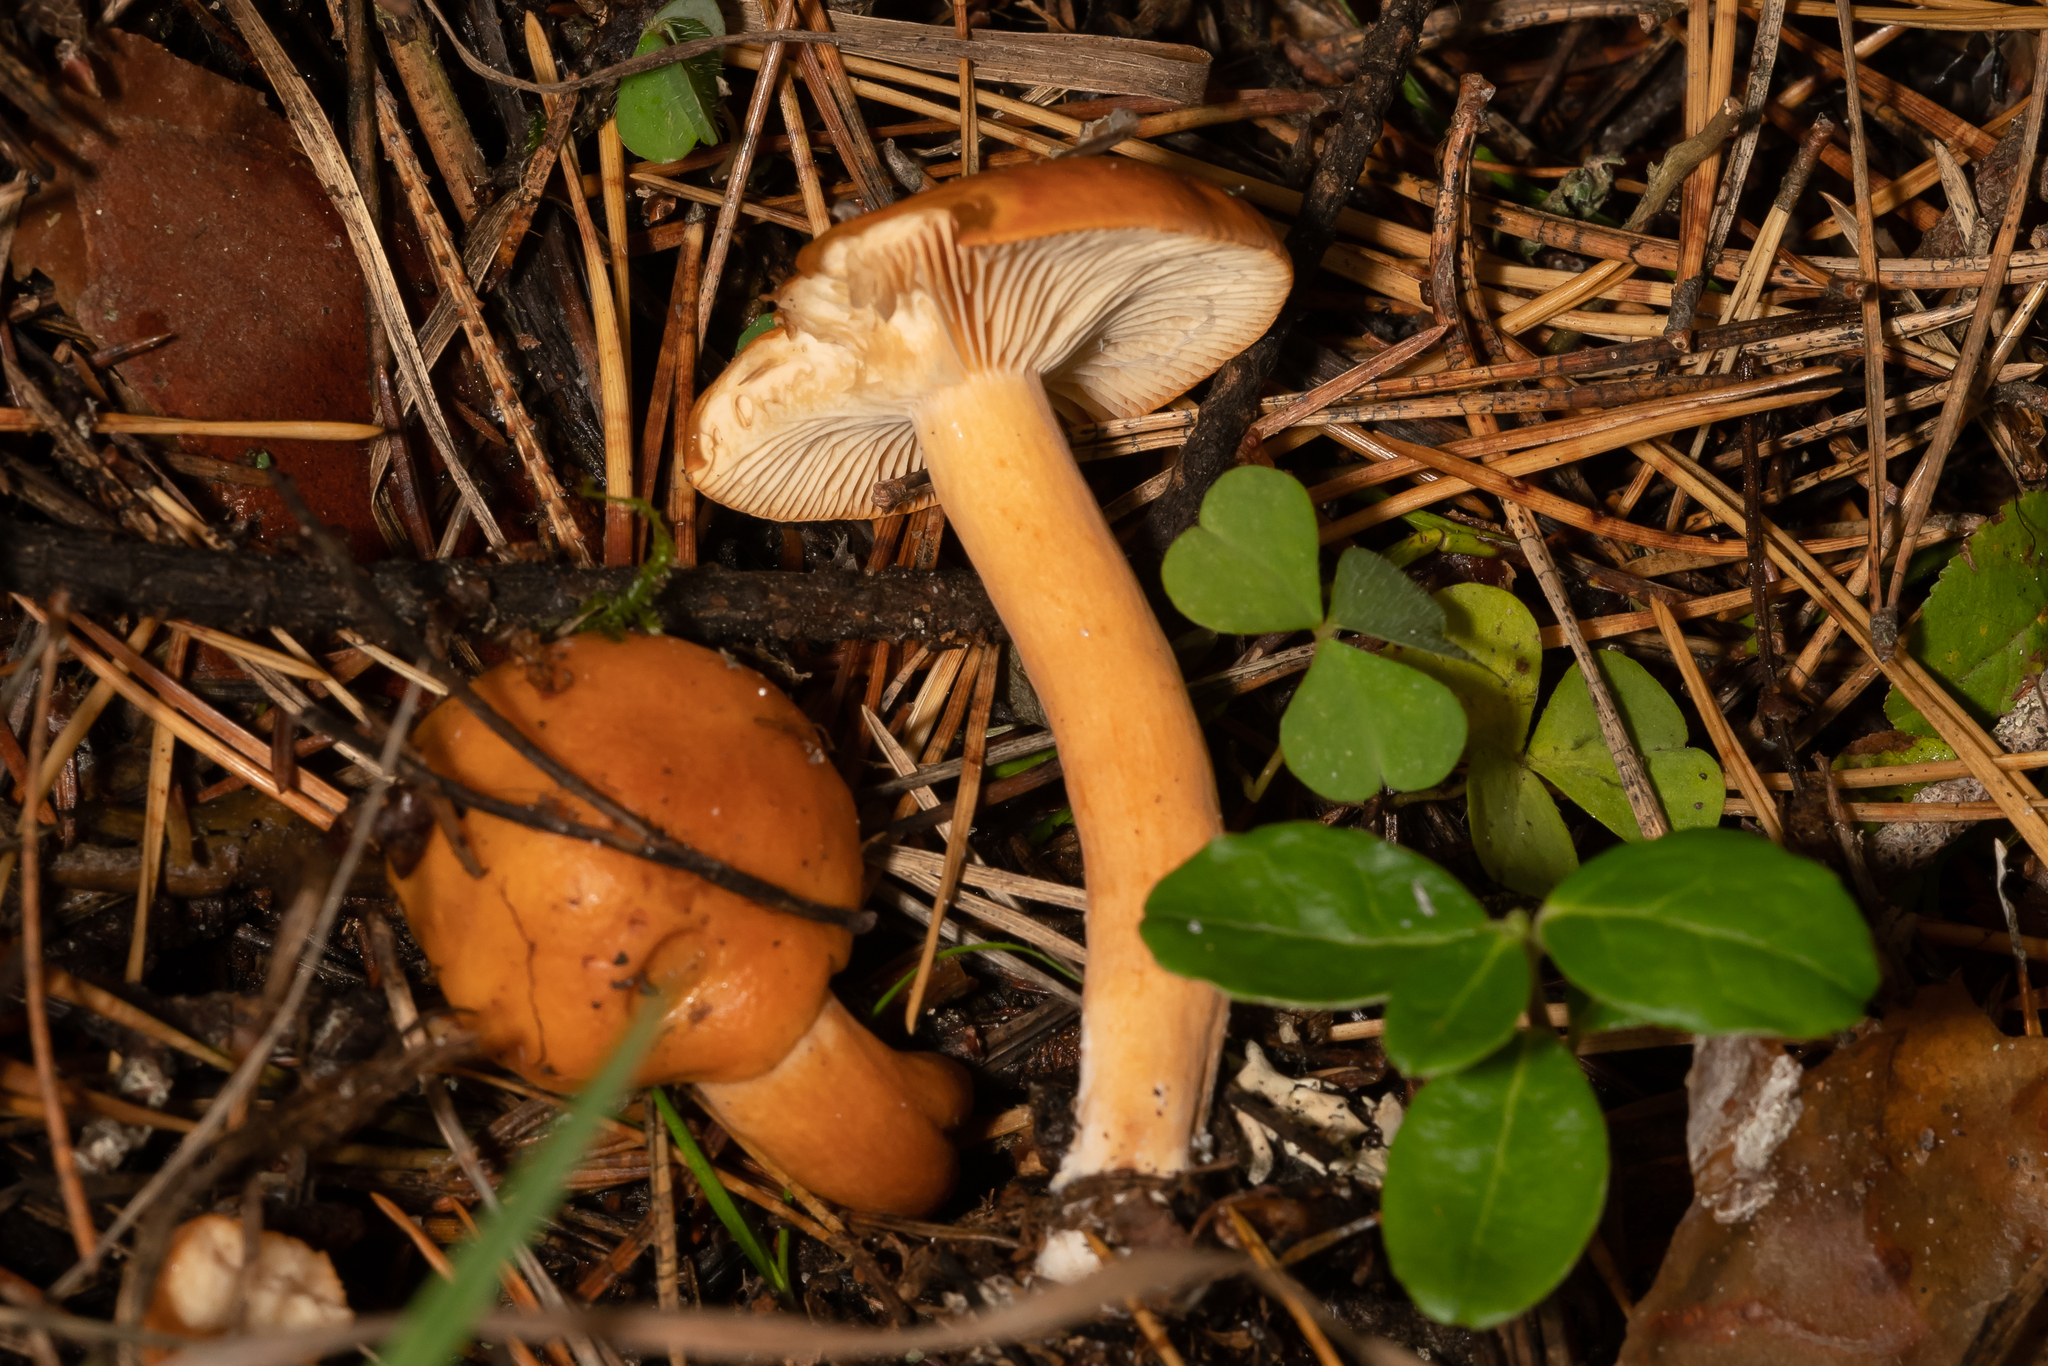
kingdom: Fungi
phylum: Basidiomycota
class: Agaricomycetes
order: Russulales
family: Russulaceae
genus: Lactarius
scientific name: Lactarius aurantiacus
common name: Orange milkcap
